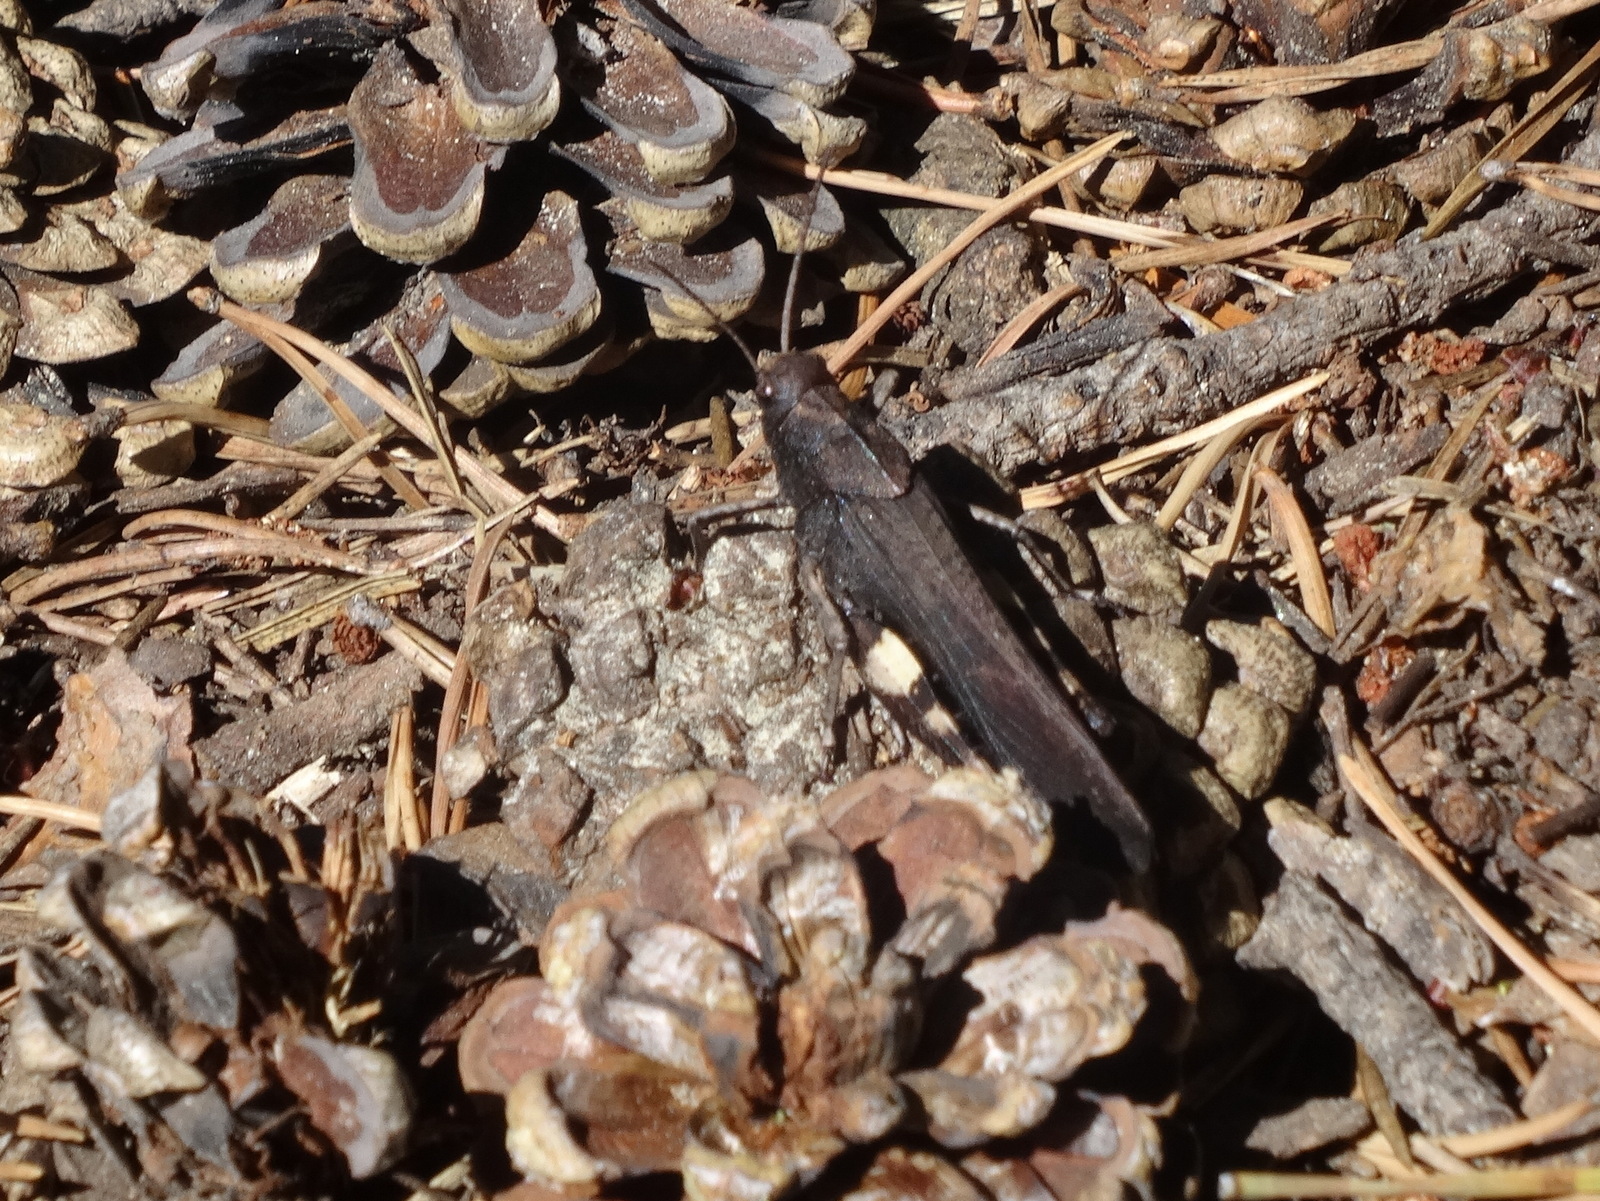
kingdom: Animalia
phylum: Arthropoda
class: Insecta
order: Orthoptera
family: Acrididae
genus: Psophus
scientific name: Psophus stridulus
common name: Rattle grasshopper
